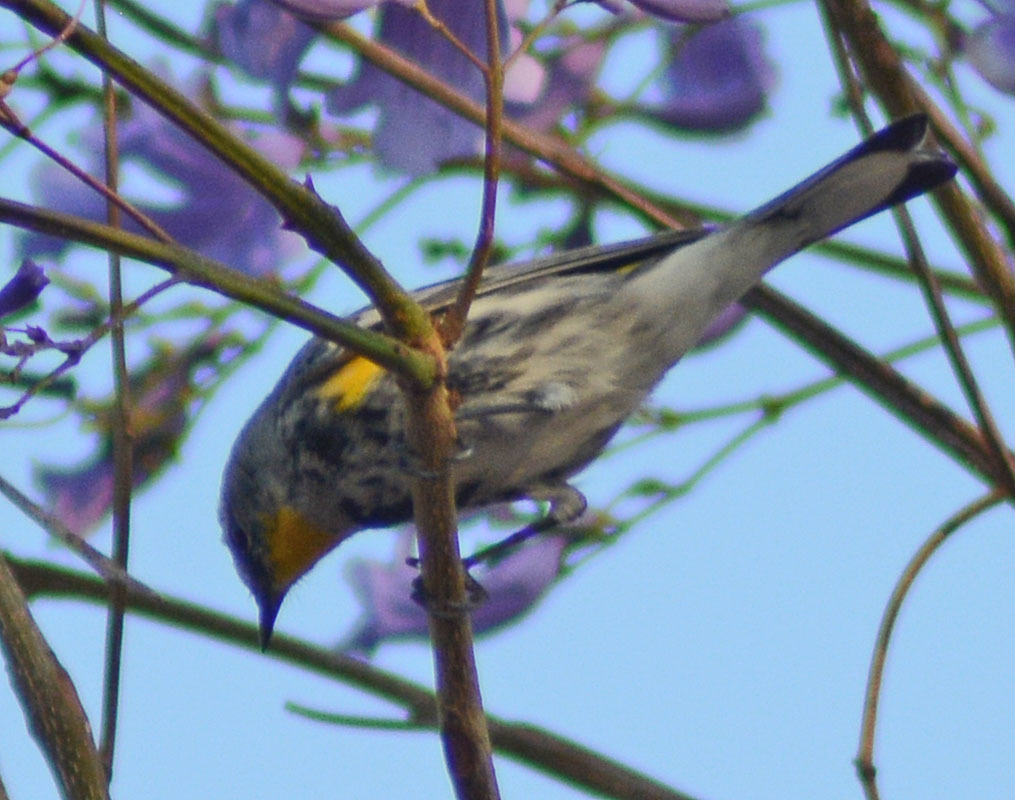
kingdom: Animalia
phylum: Chordata
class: Aves
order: Passeriformes
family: Parulidae
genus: Setophaga
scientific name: Setophaga auduboni
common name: Audubon's warbler
